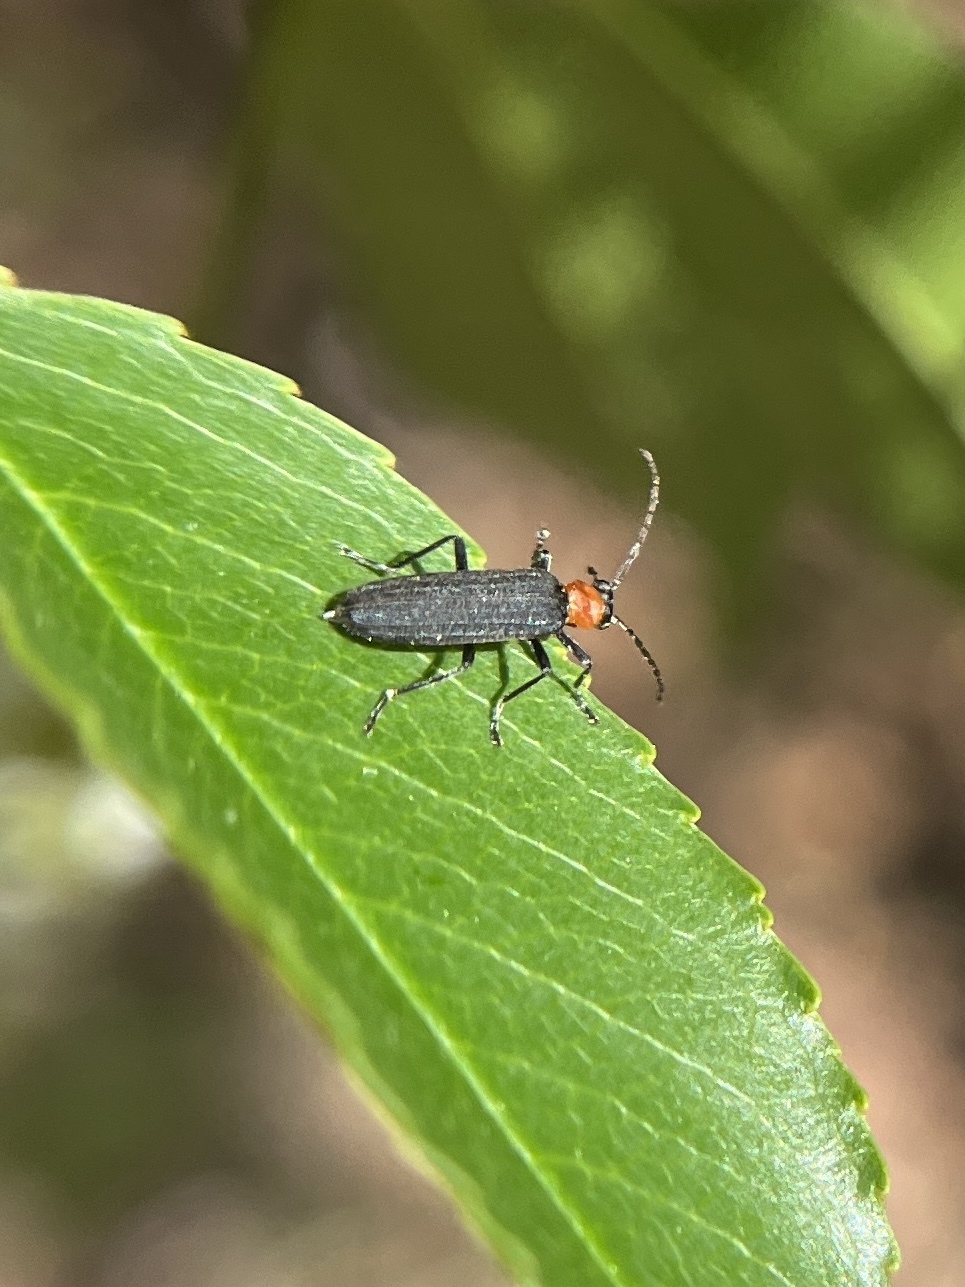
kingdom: Animalia
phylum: Arthropoda
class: Insecta
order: Coleoptera
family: Oedemeridae
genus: Ischnomera
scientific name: Ischnomera
